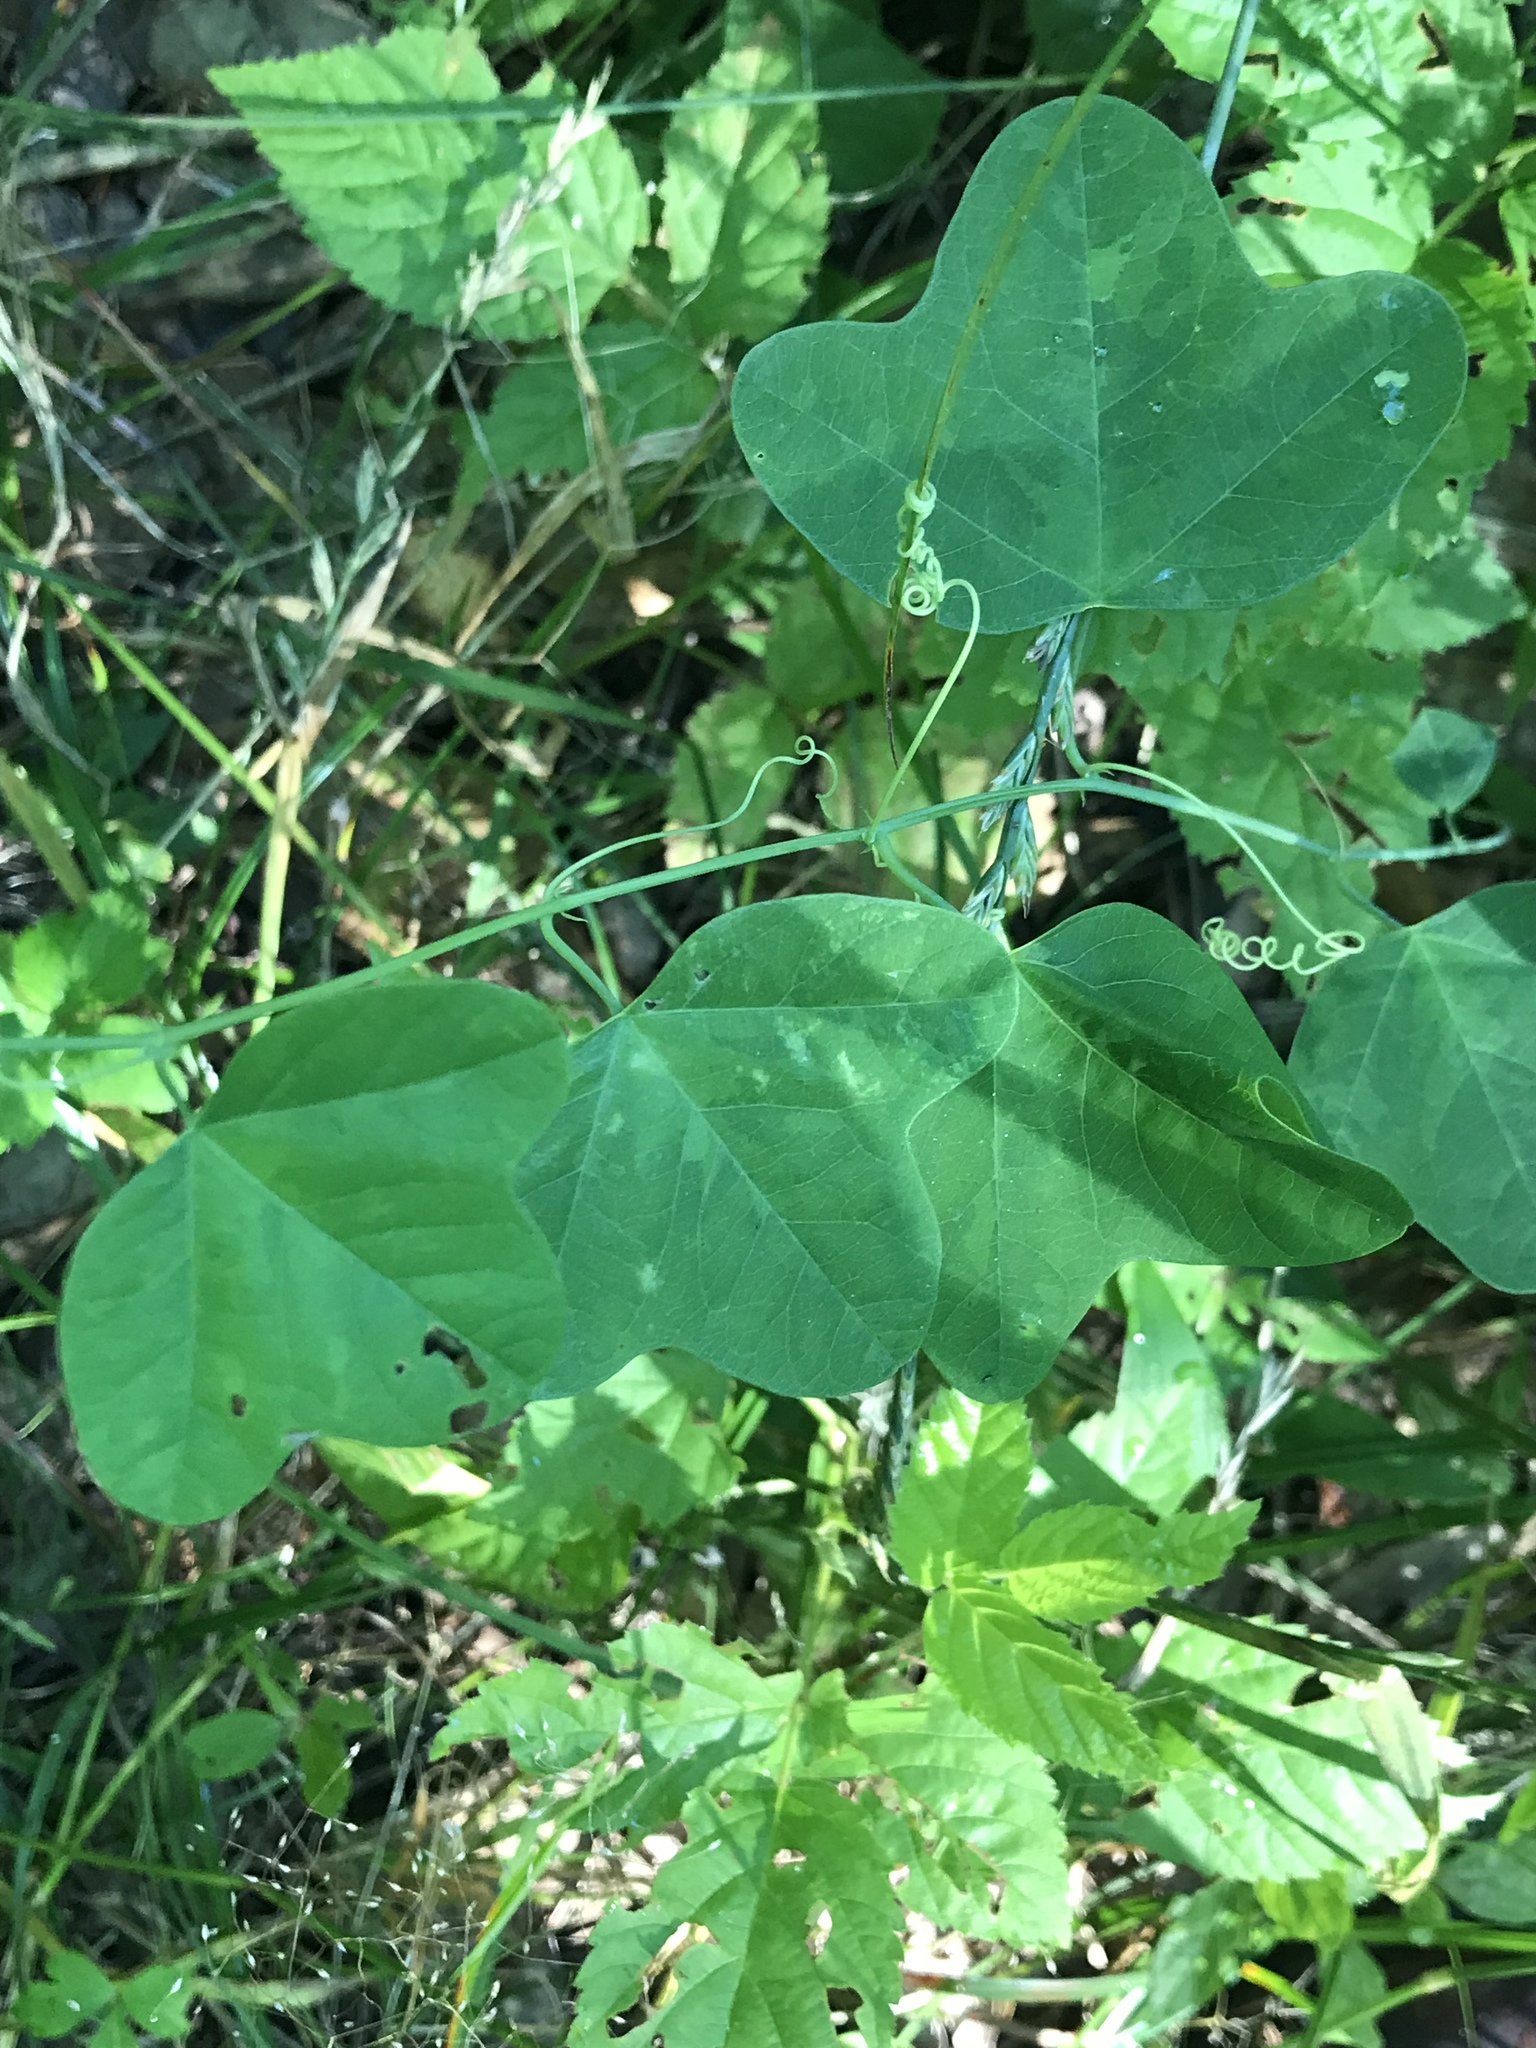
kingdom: Plantae
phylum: Tracheophyta
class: Magnoliopsida
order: Malpighiales
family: Passifloraceae
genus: Passiflora
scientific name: Passiflora lutea
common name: Yellow passionflower
